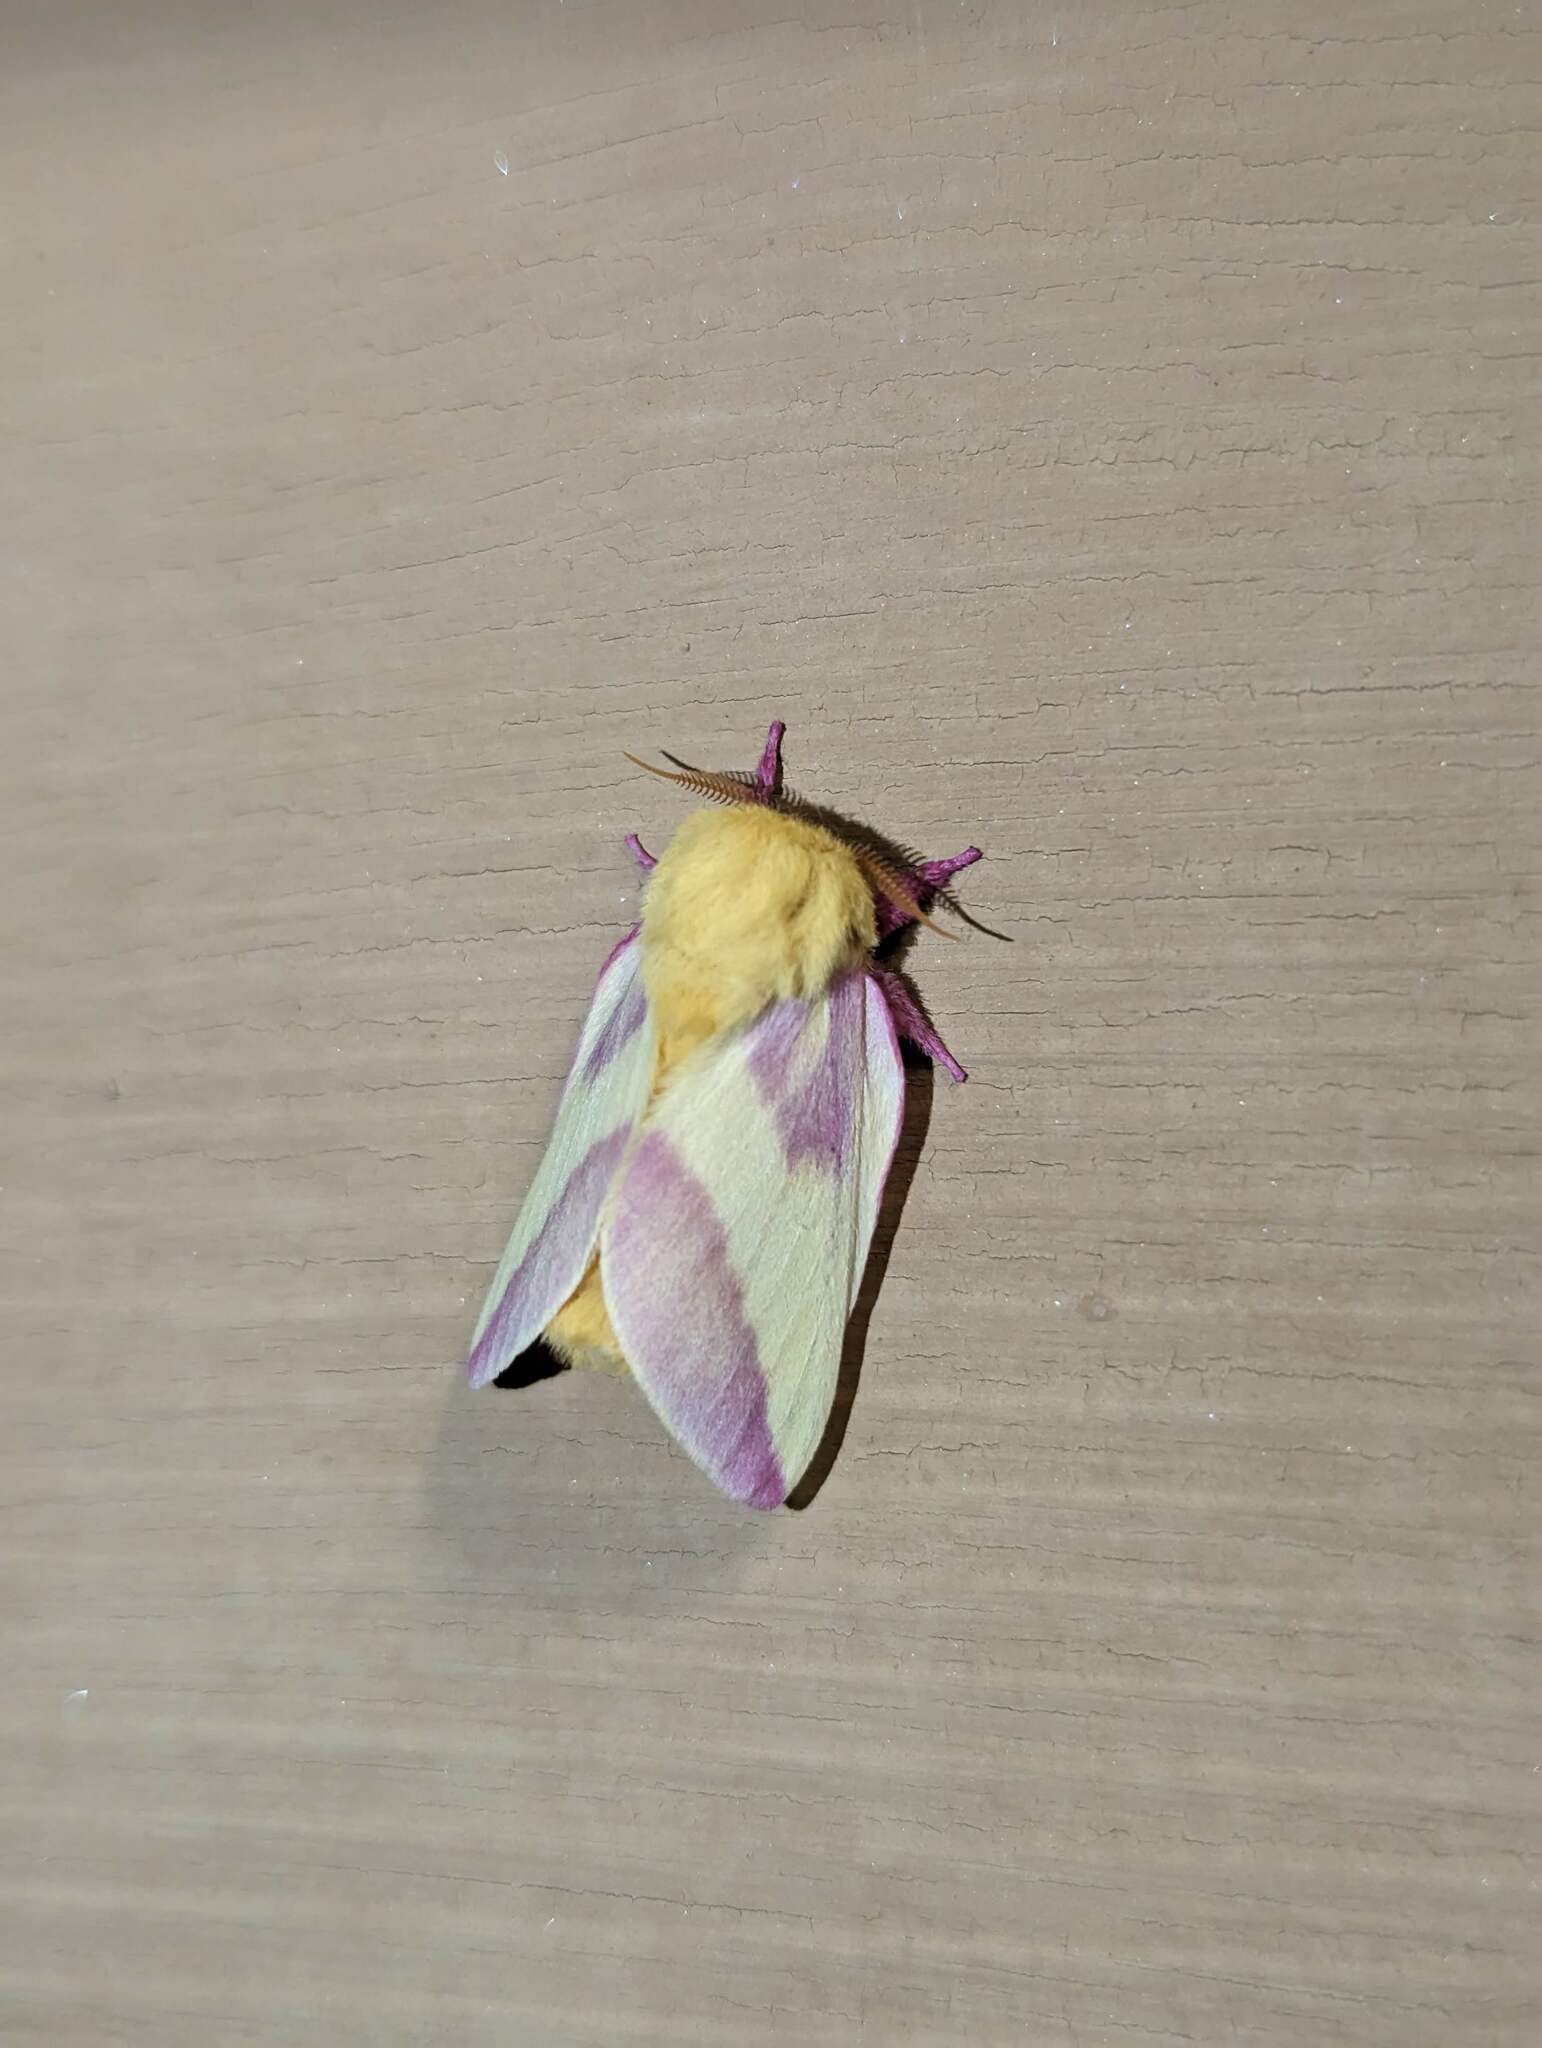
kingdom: Animalia
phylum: Arthropoda
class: Insecta
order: Lepidoptera
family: Saturniidae
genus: Dryocampa
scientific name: Dryocampa rubicunda
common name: Rosy maple moth
